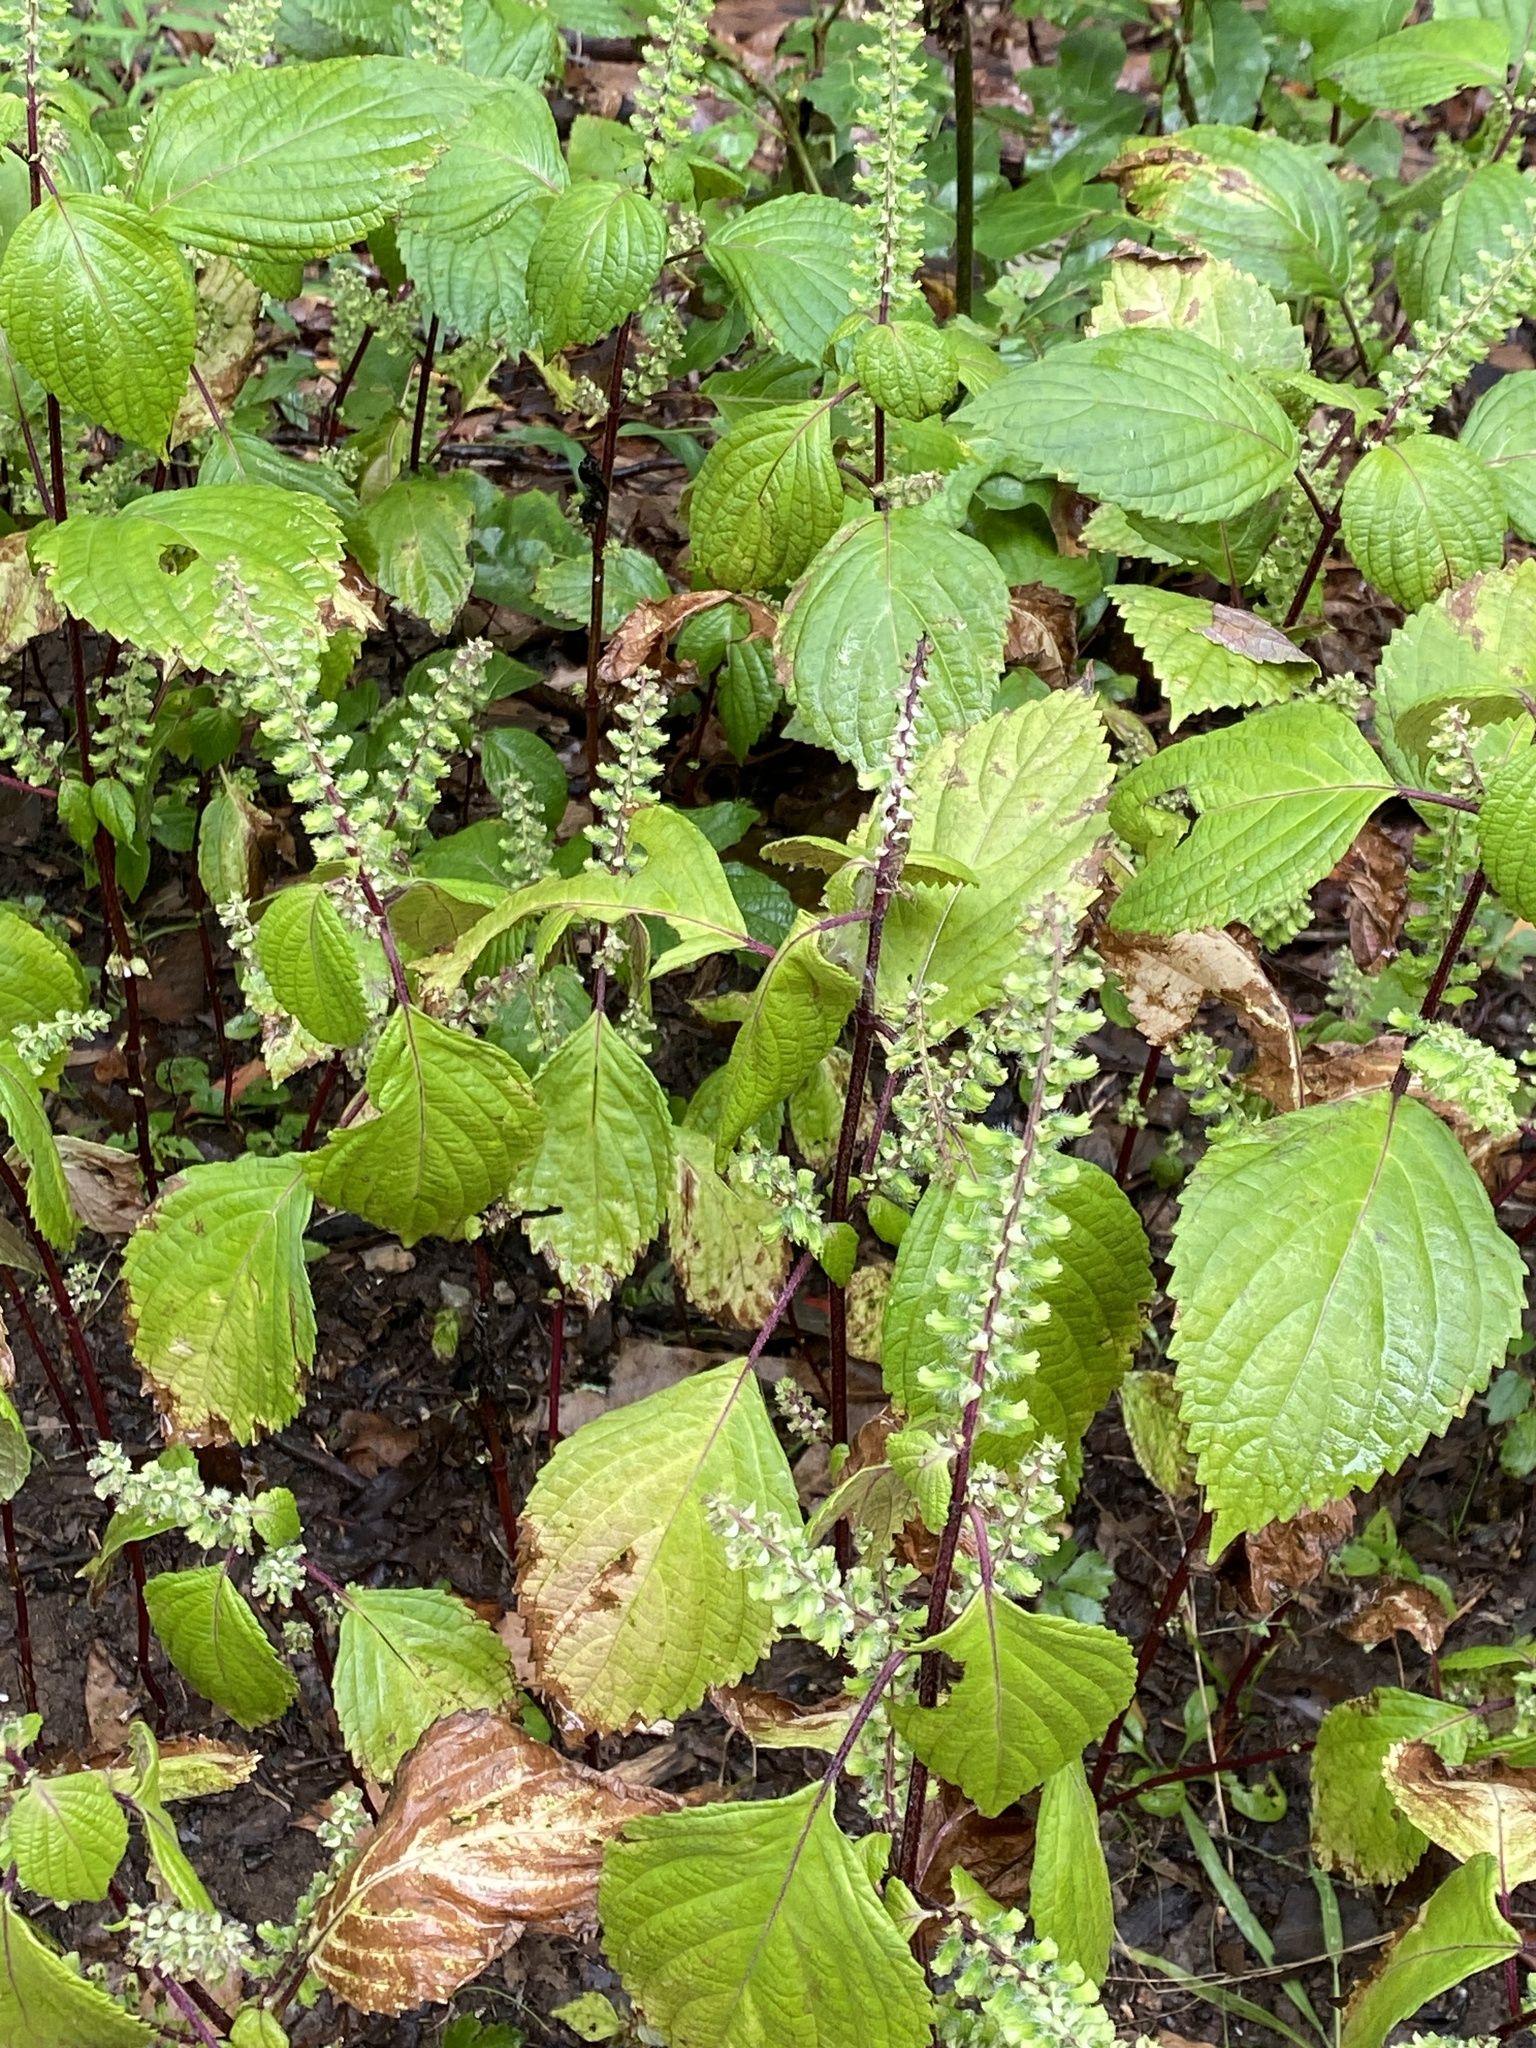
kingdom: Plantae
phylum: Tracheophyta
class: Magnoliopsida
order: Lamiales
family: Lamiaceae
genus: Perilla
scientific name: Perilla frutescens
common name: Perilla
